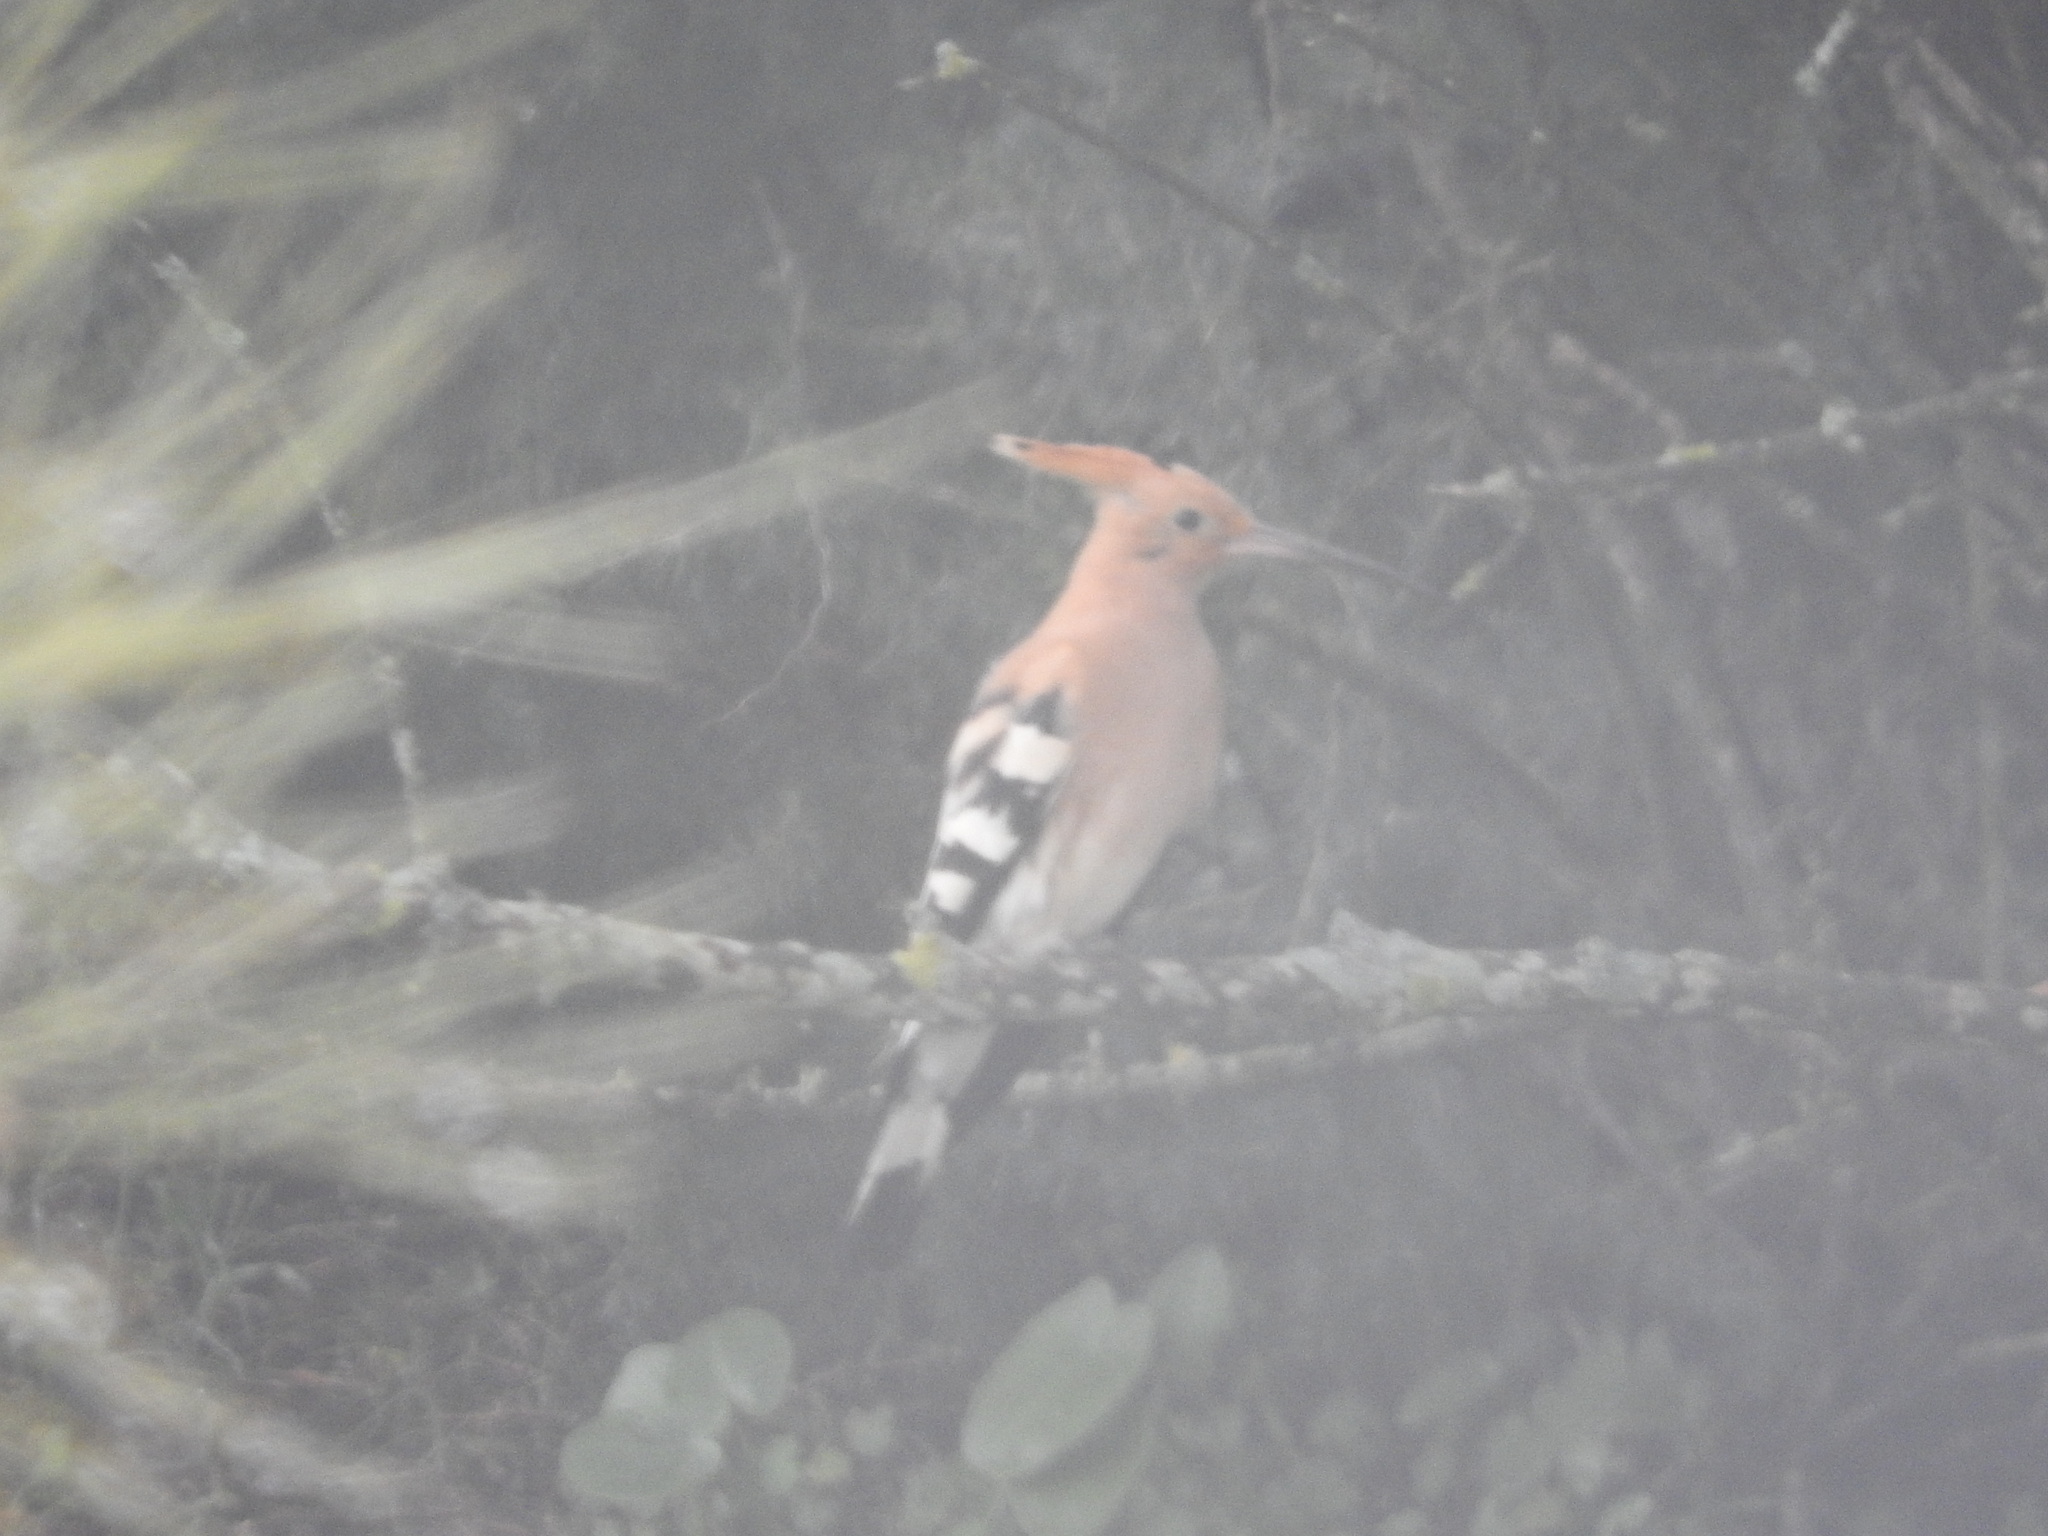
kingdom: Animalia
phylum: Chordata
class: Aves
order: Bucerotiformes
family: Upupidae
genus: Upupa
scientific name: Upupa epops
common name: Eurasian hoopoe
